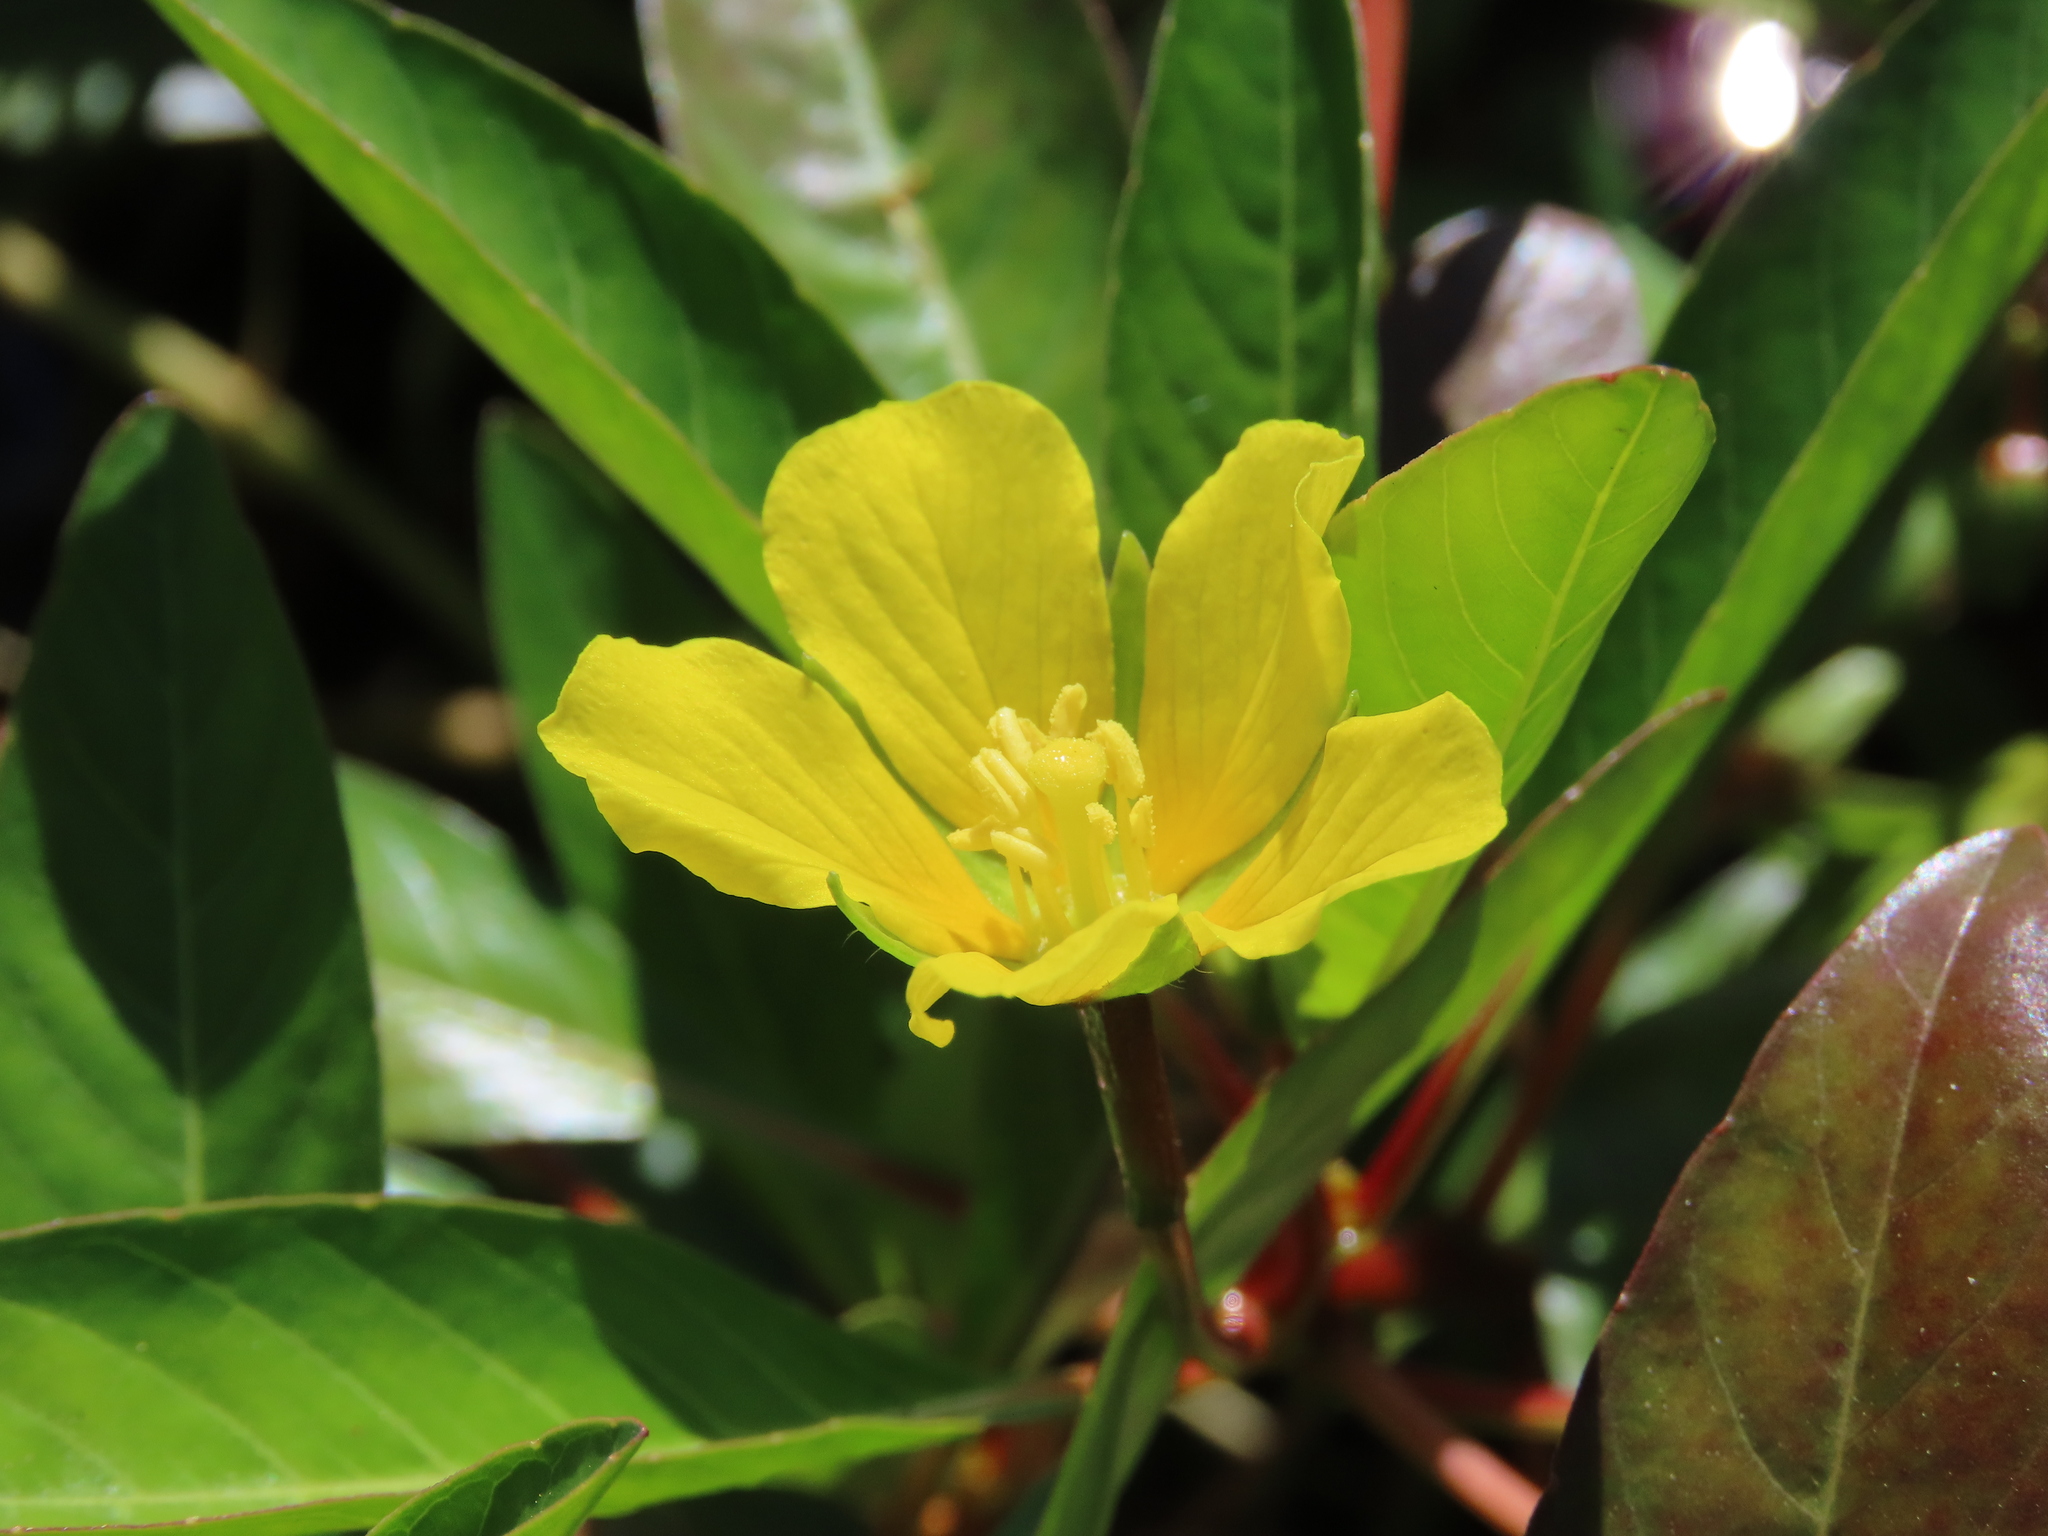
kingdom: Plantae
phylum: Tracheophyta
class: Magnoliopsida
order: Myrtales
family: Onagraceae
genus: Ludwigia
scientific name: Ludwigia peploides
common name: Floating primrose-willow
